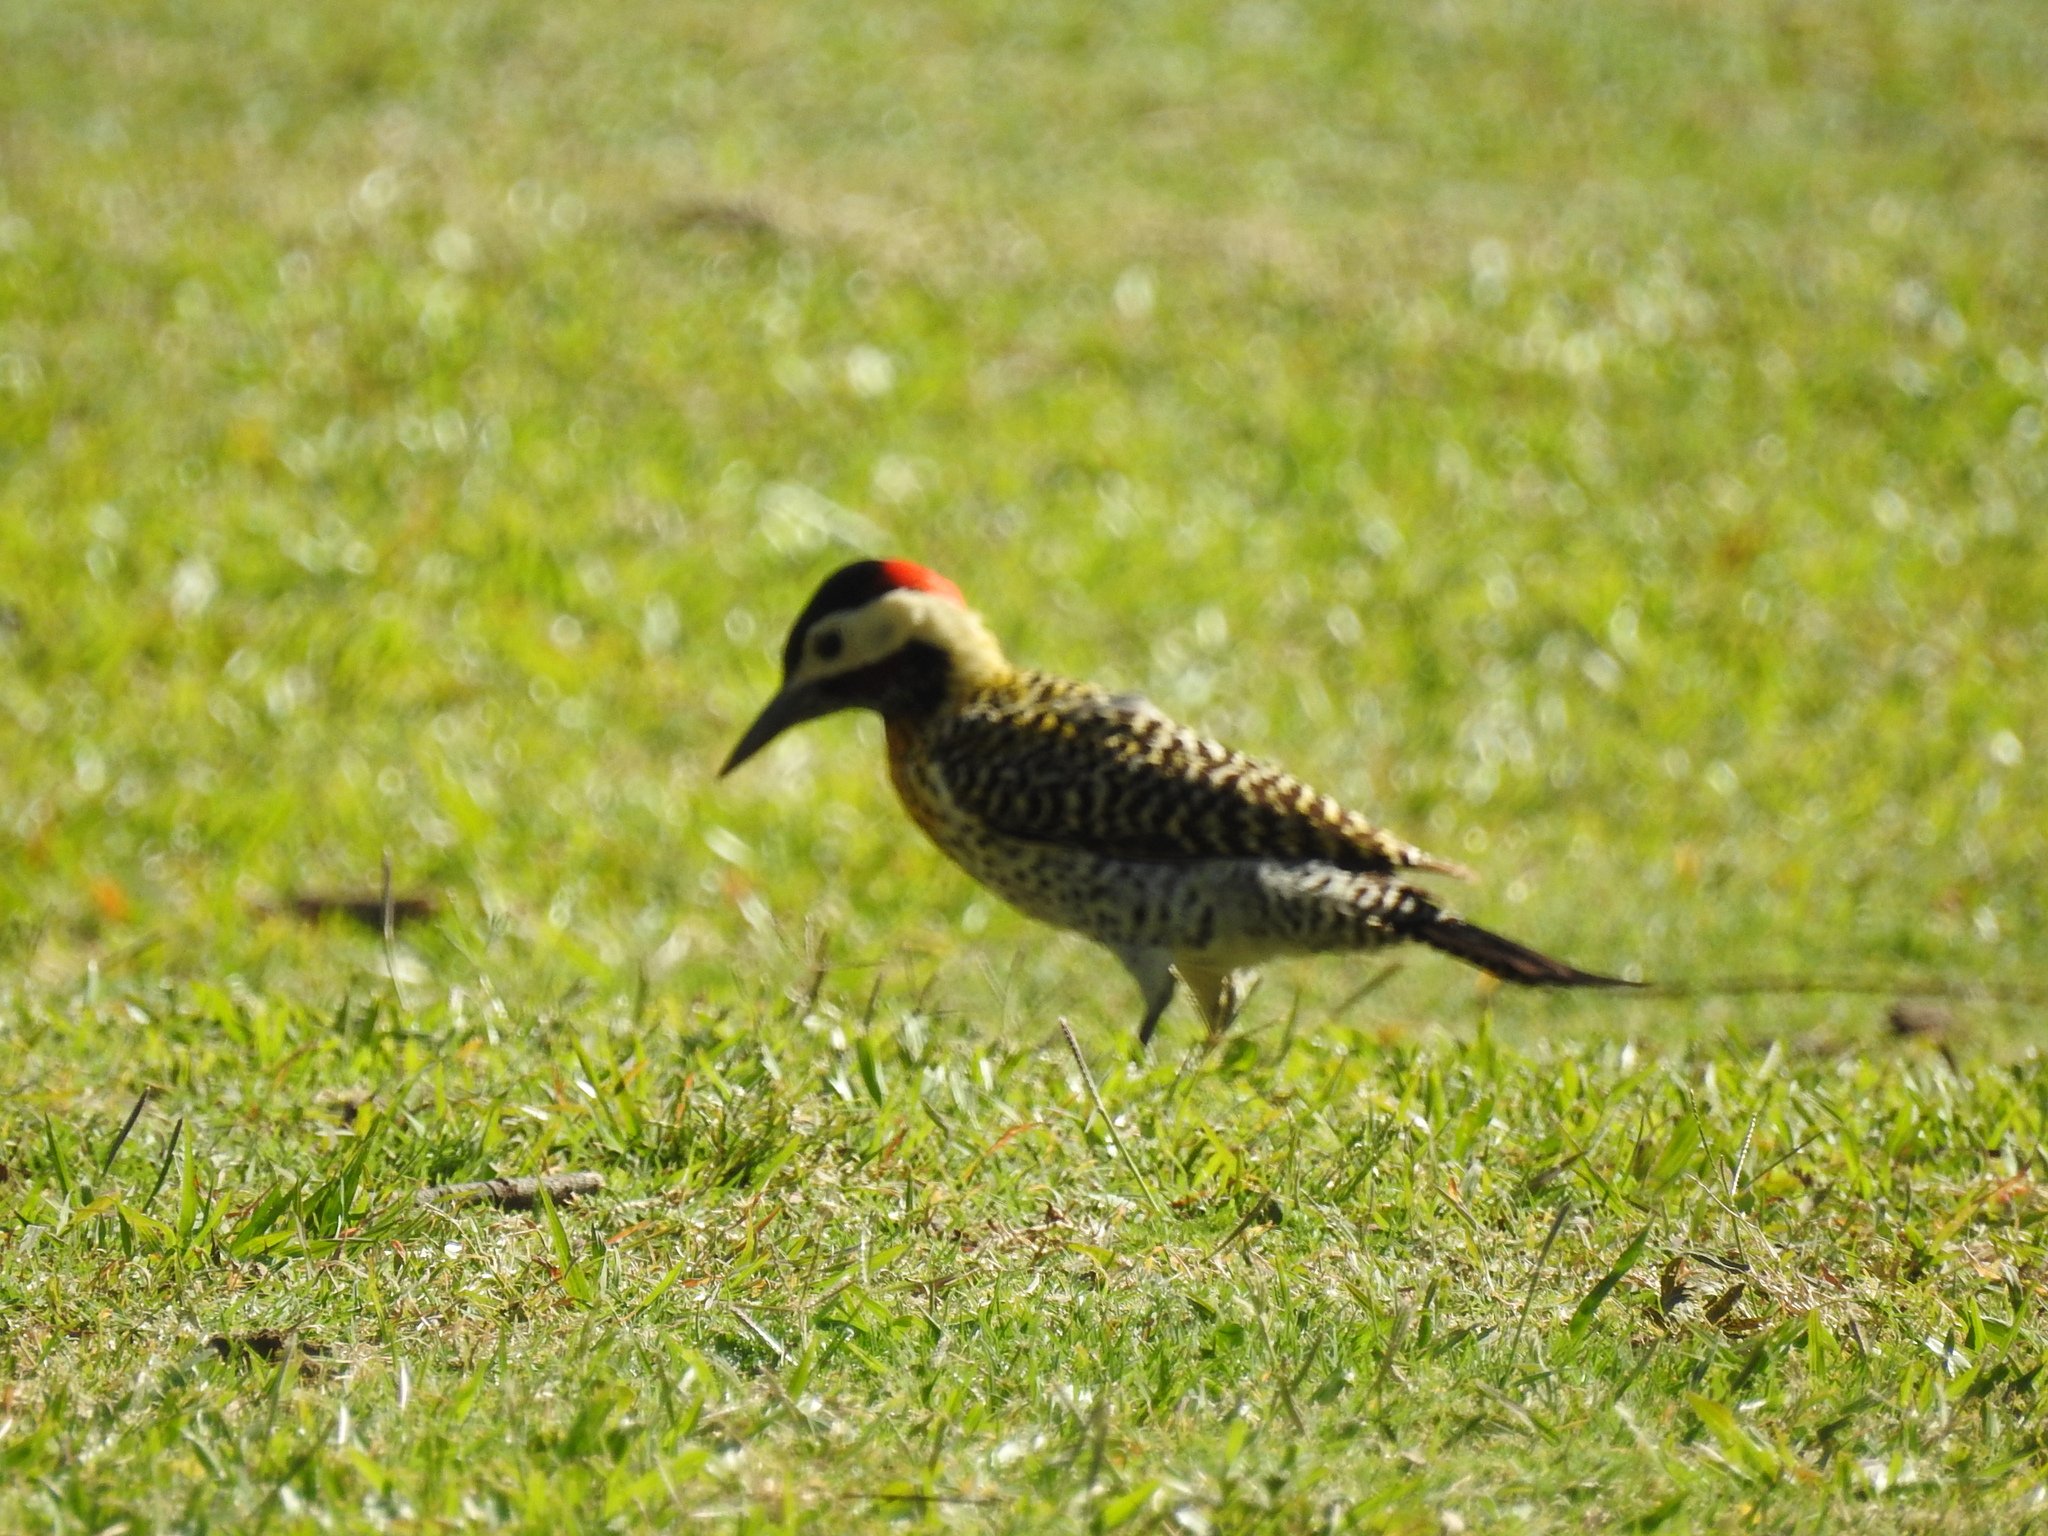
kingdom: Animalia
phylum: Chordata
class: Aves
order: Piciformes
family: Picidae
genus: Colaptes
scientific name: Colaptes melanochloros
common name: Green-barred woodpecker
